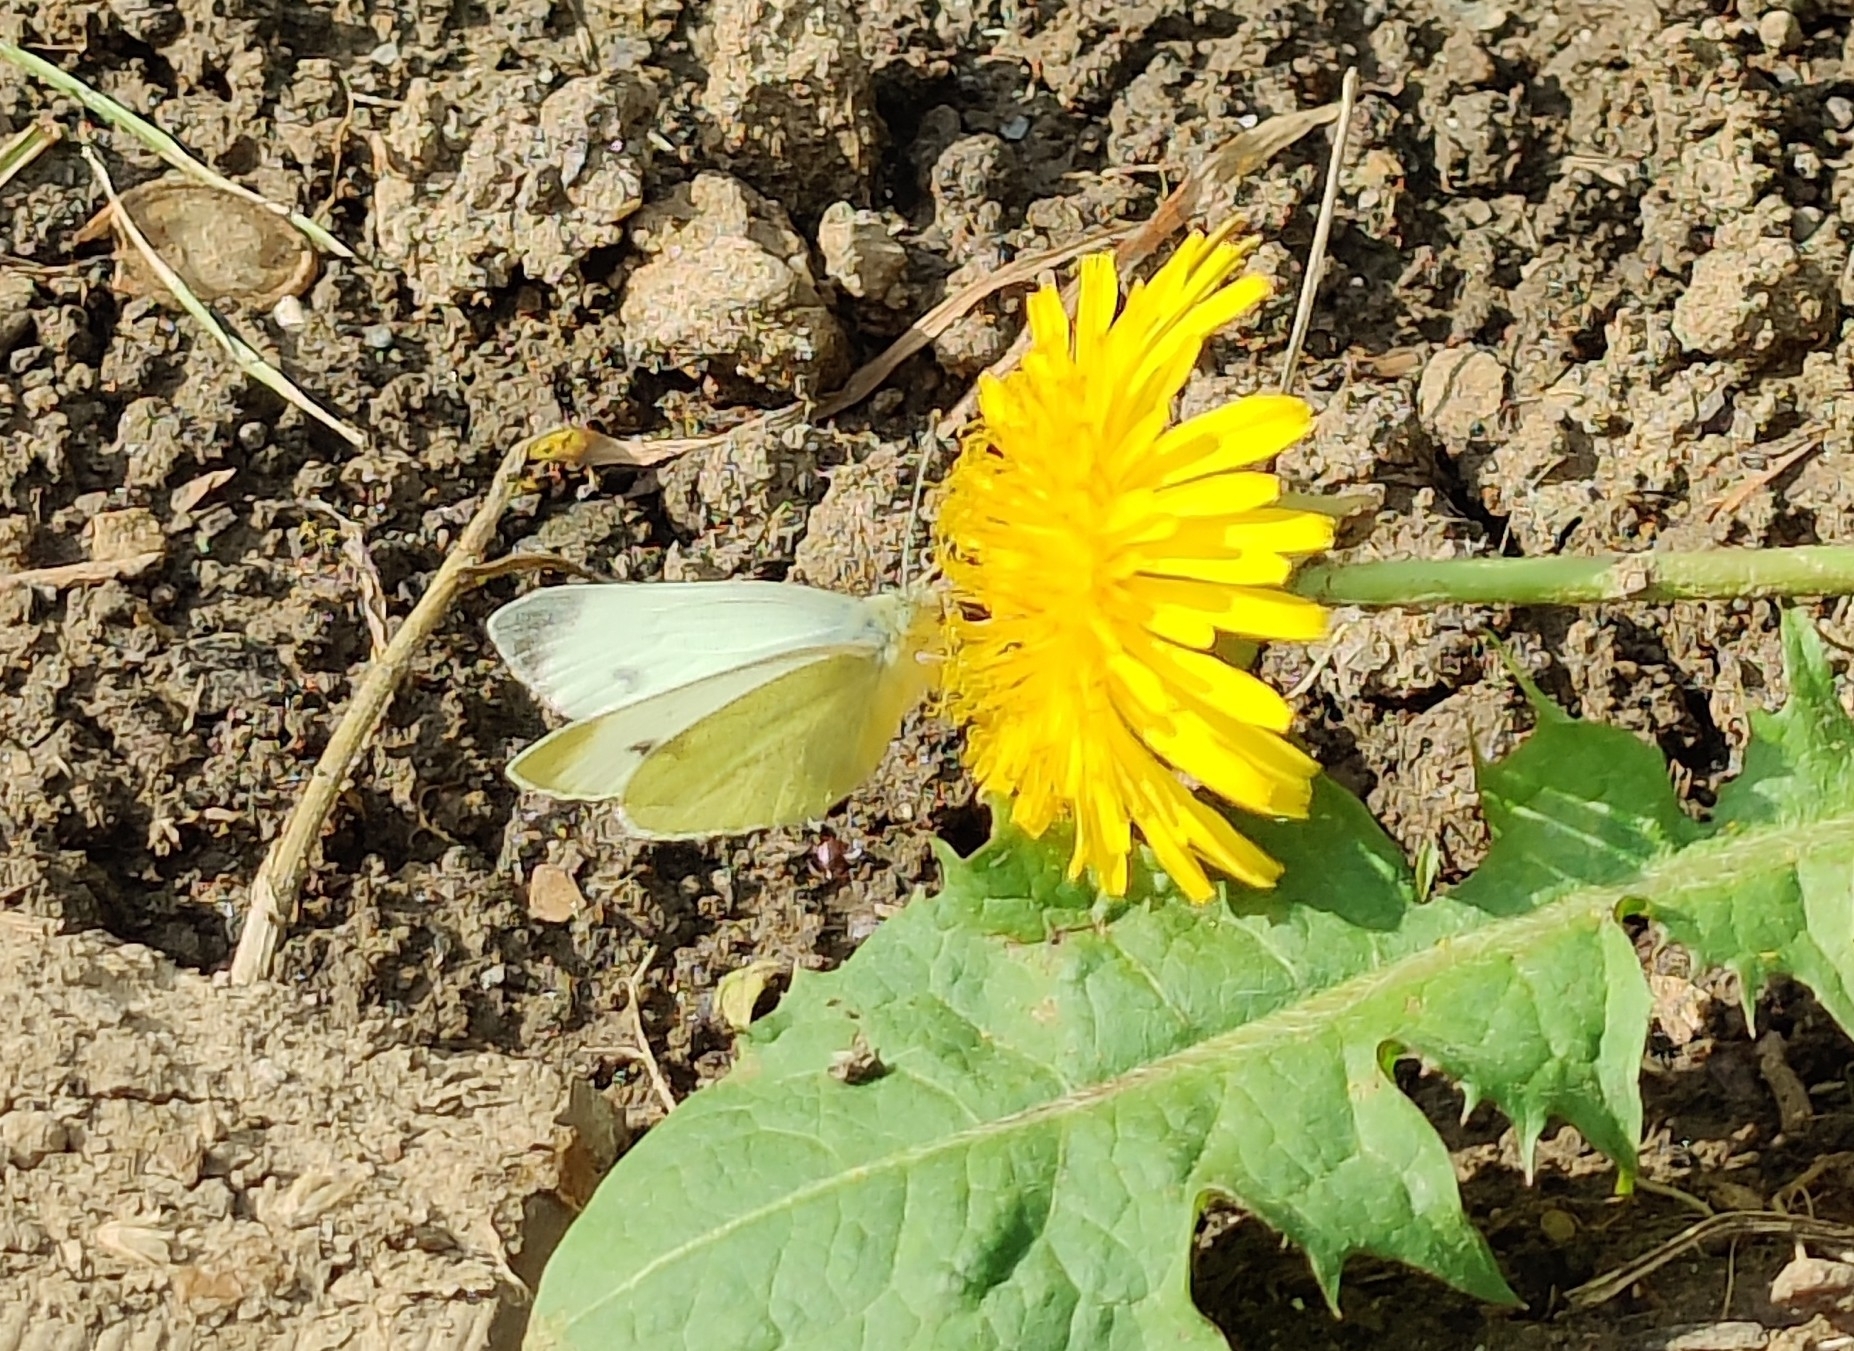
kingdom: Animalia
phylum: Arthropoda
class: Insecta
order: Lepidoptera
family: Pieridae
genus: Pieris
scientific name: Pieris rapae
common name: Small white
